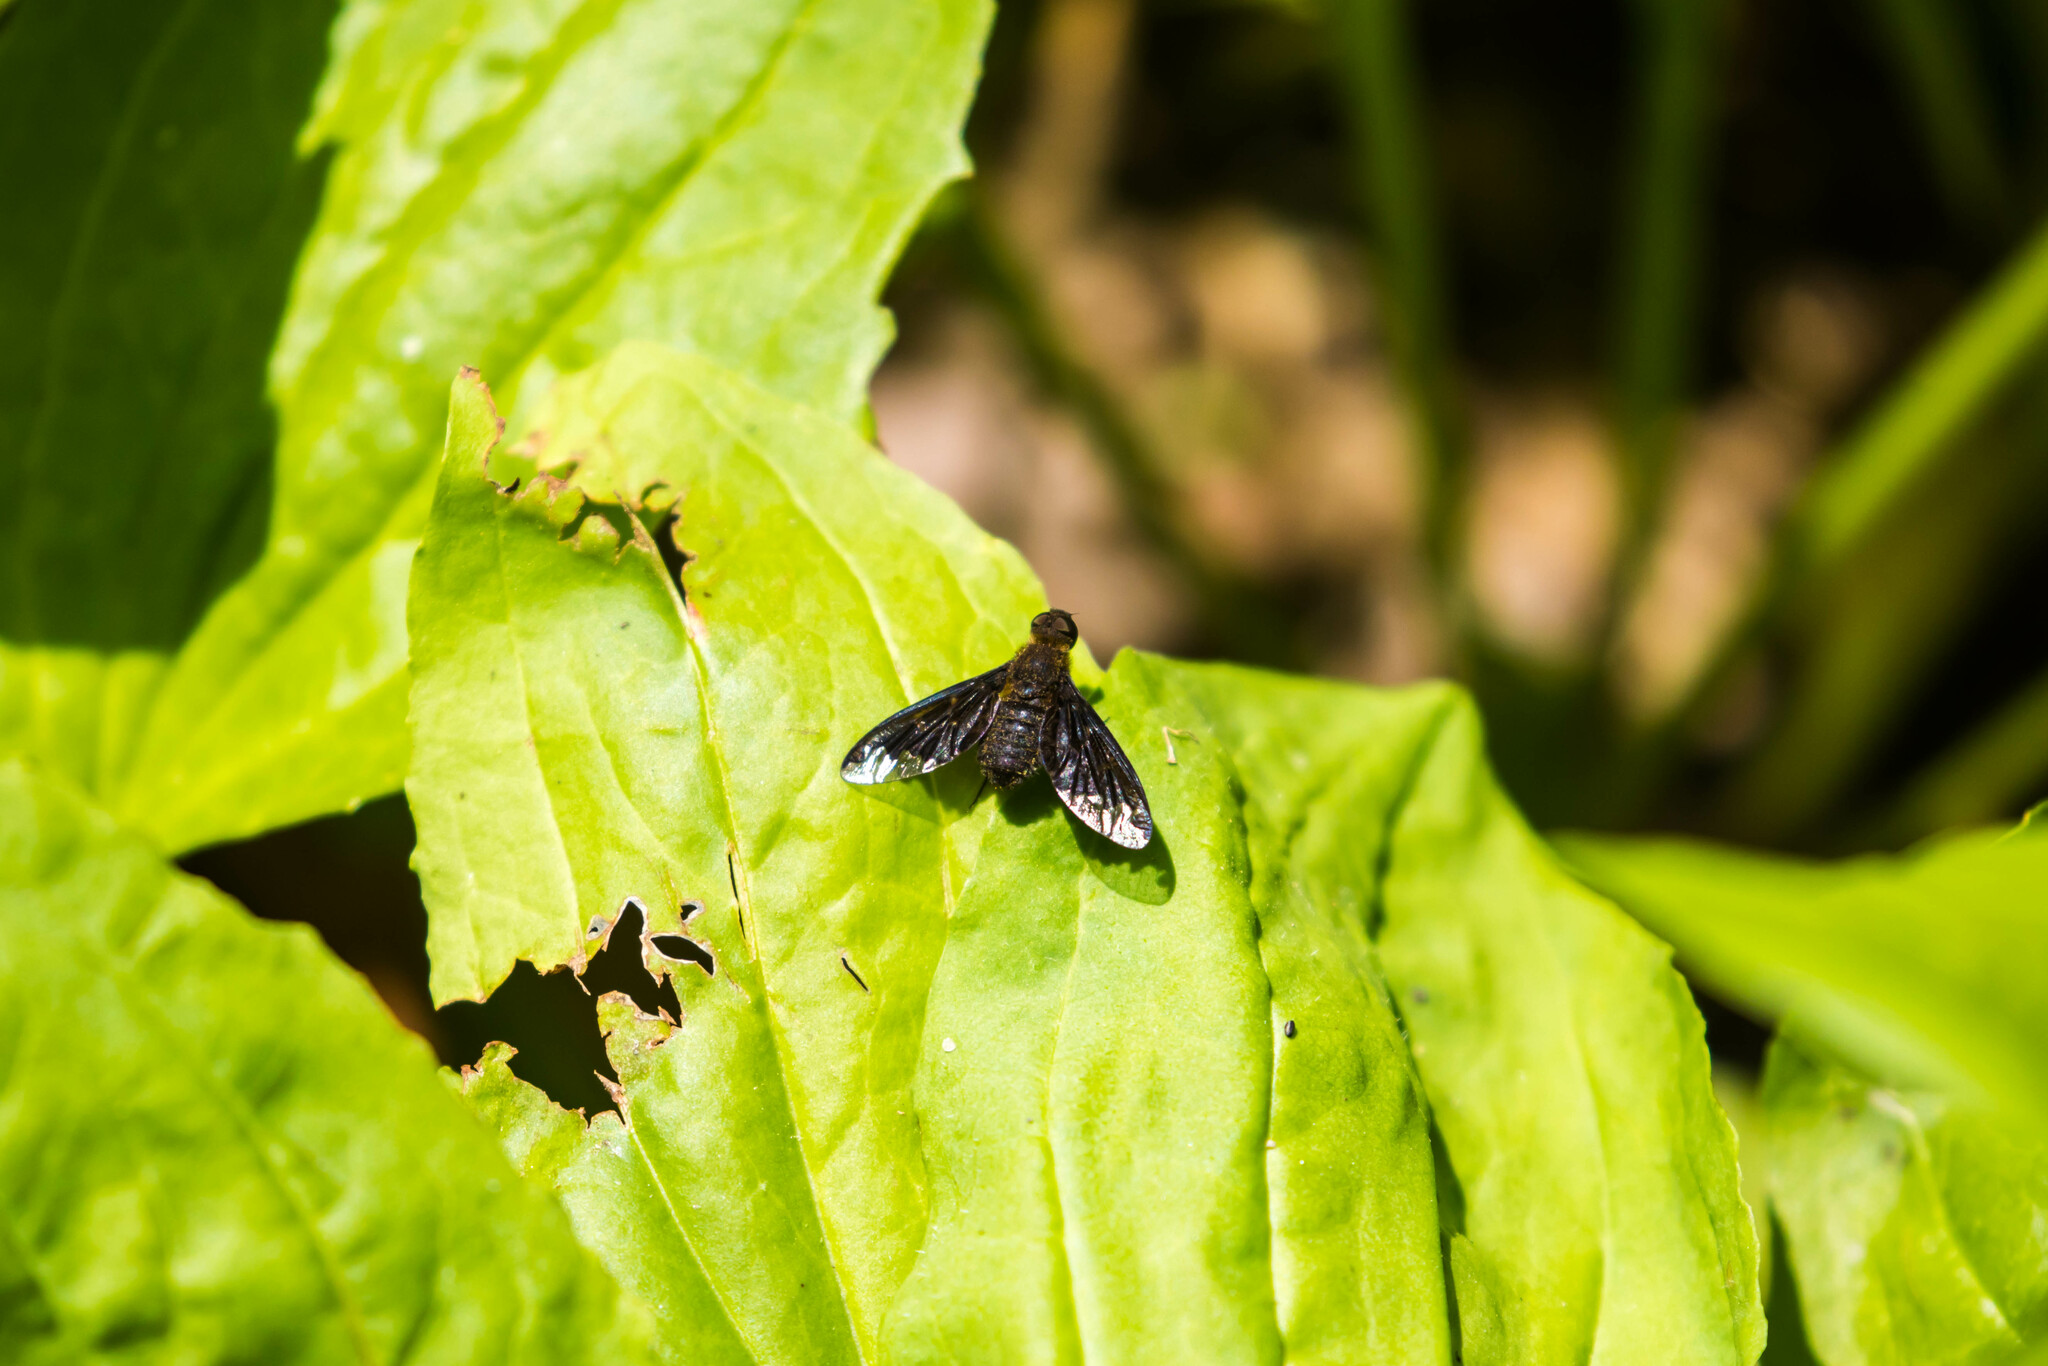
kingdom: Animalia
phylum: Arthropoda
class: Insecta
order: Diptera
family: Bombyliidae
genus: Hemipenthes
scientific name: Hemipenthes sinuosus
